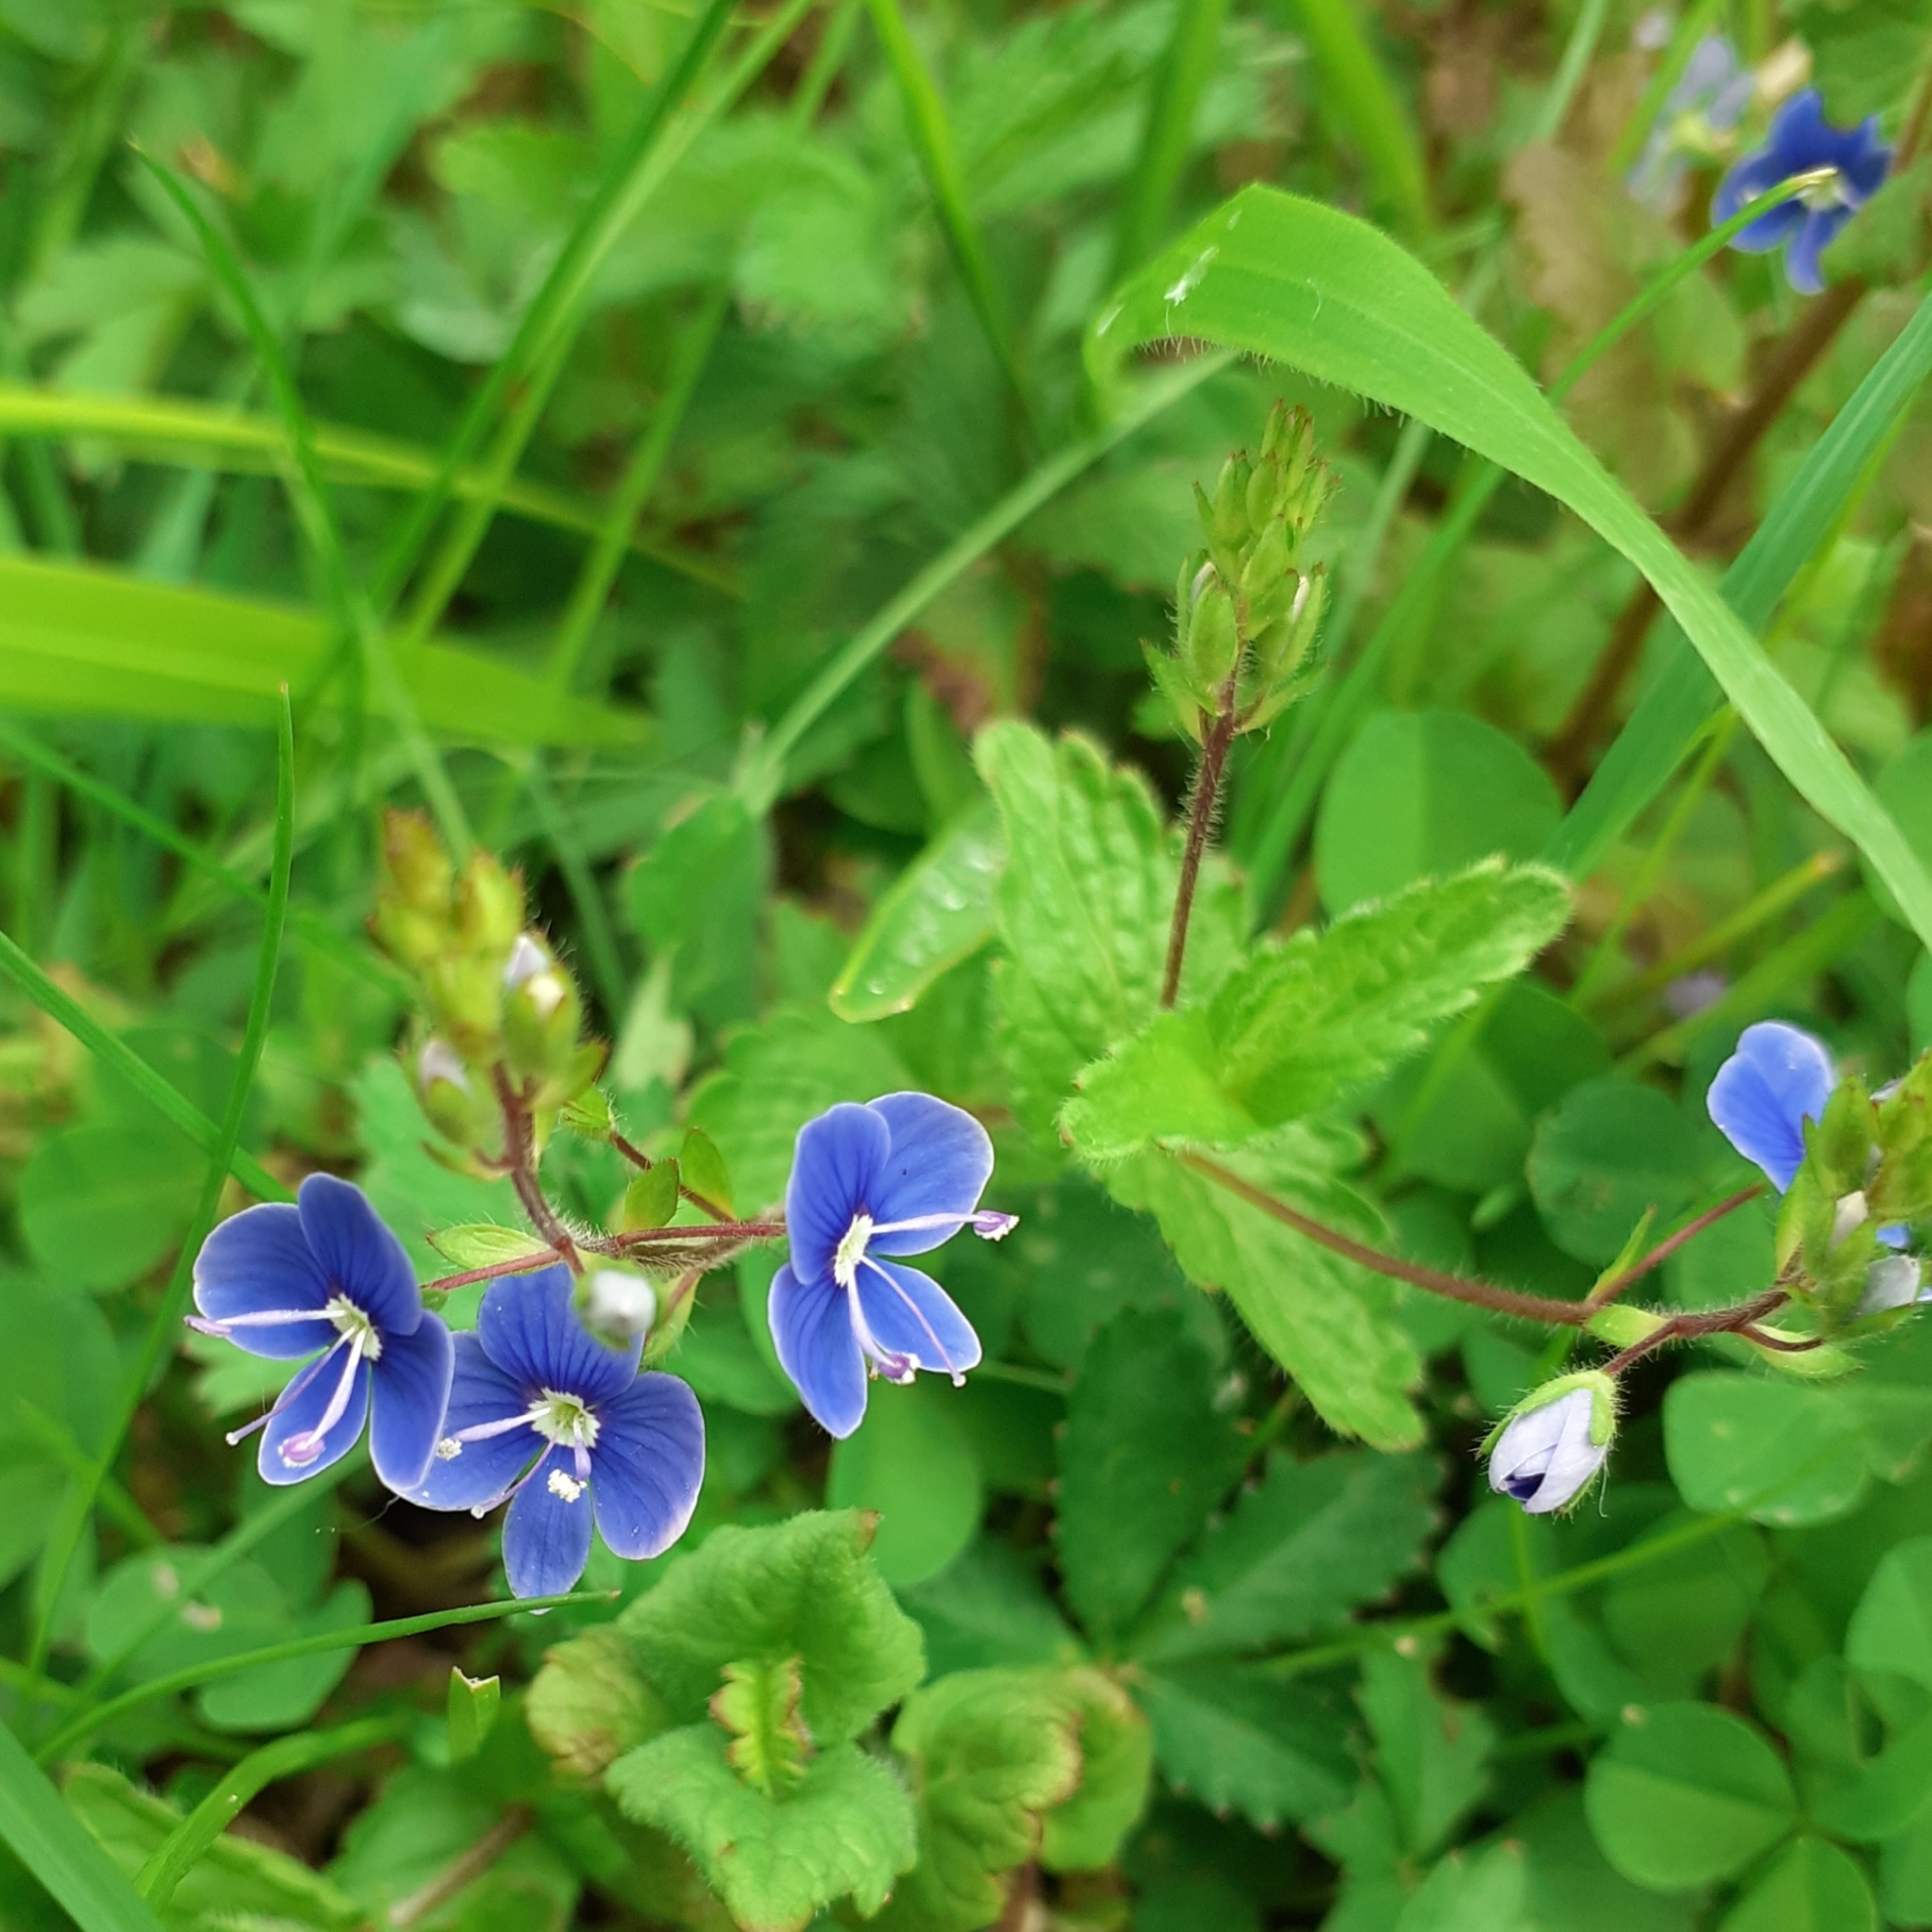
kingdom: Plantae
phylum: Tracheophyta
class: Magnoliopsida
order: Lamiales
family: Plantaginaceae
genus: Veronica
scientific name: Veronica chamaedrys
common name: Germander speedwell
